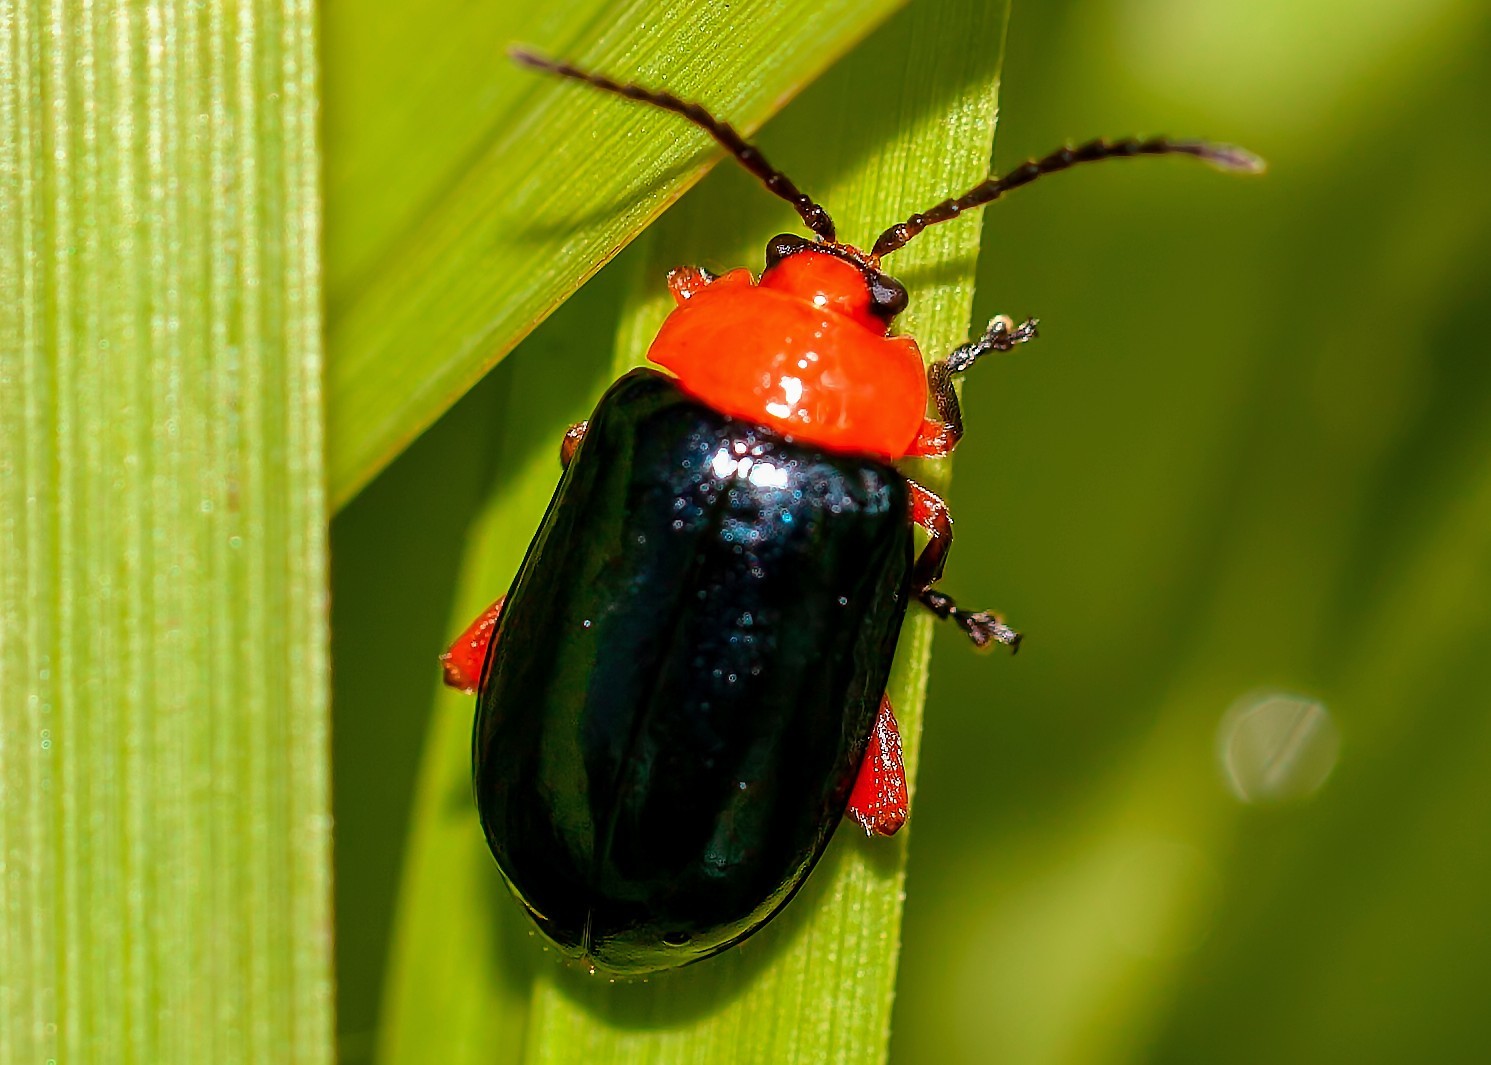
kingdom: Animalia
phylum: Arthropoda
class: Insecta
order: Coleoptera
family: Chrysomelidae
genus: Asphaera
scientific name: Asphaera lustrans
